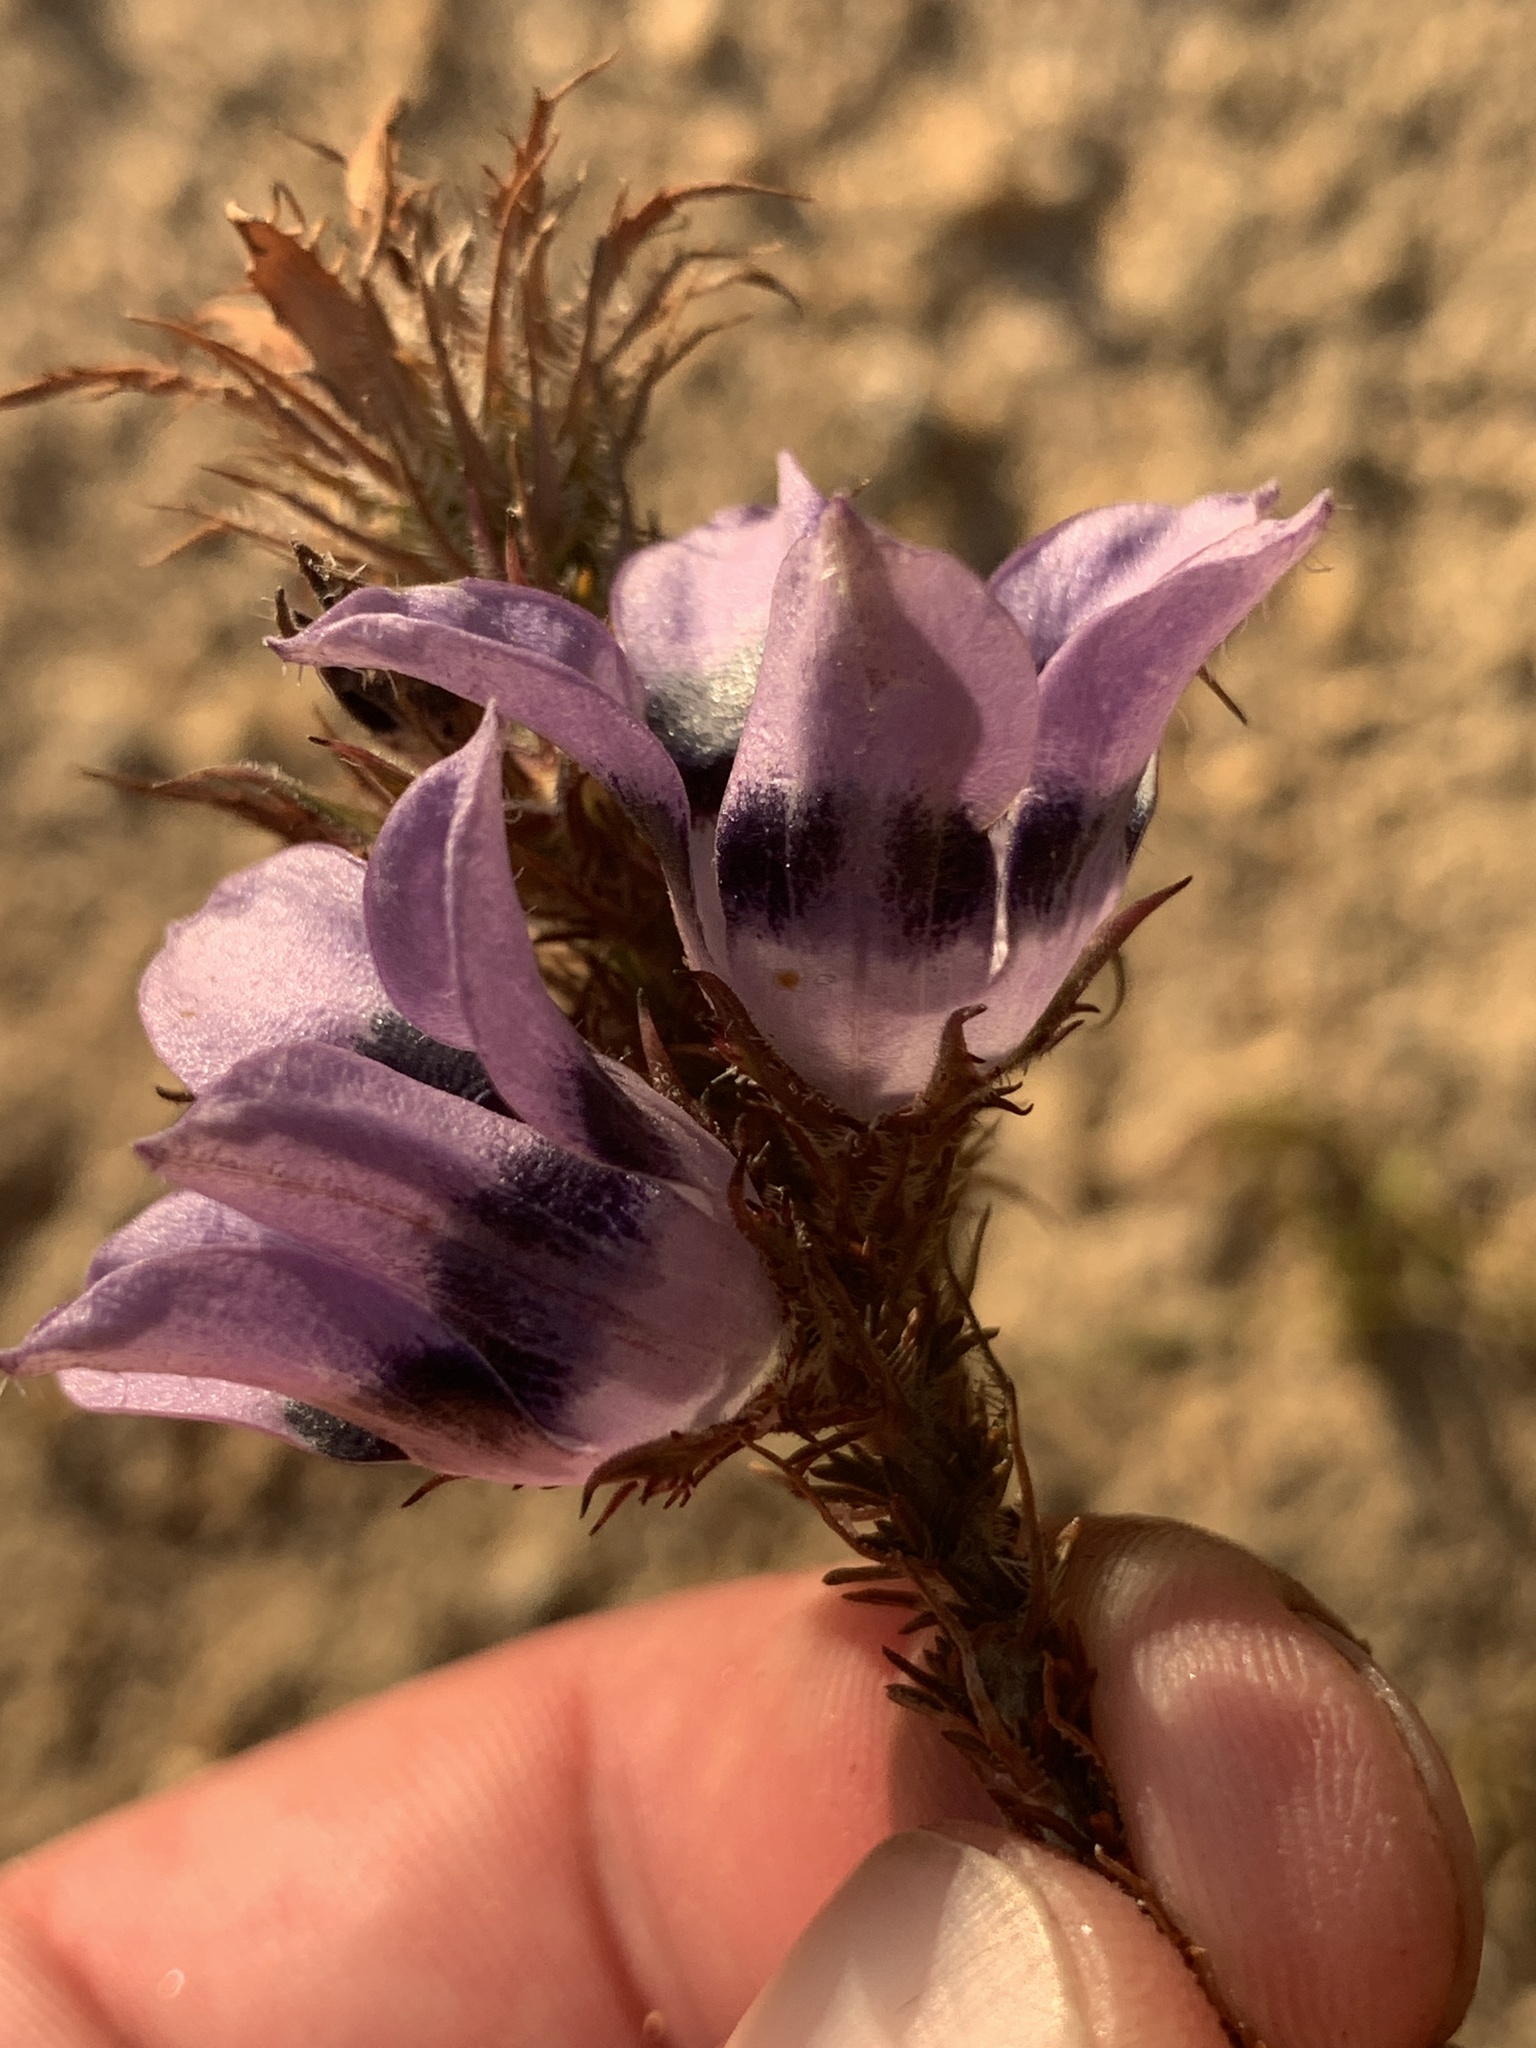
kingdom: Plantae
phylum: Tracheophyta
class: Magnoliopsida
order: Asterales
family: Campanulaceae
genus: Roella
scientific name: Roella ciliata
